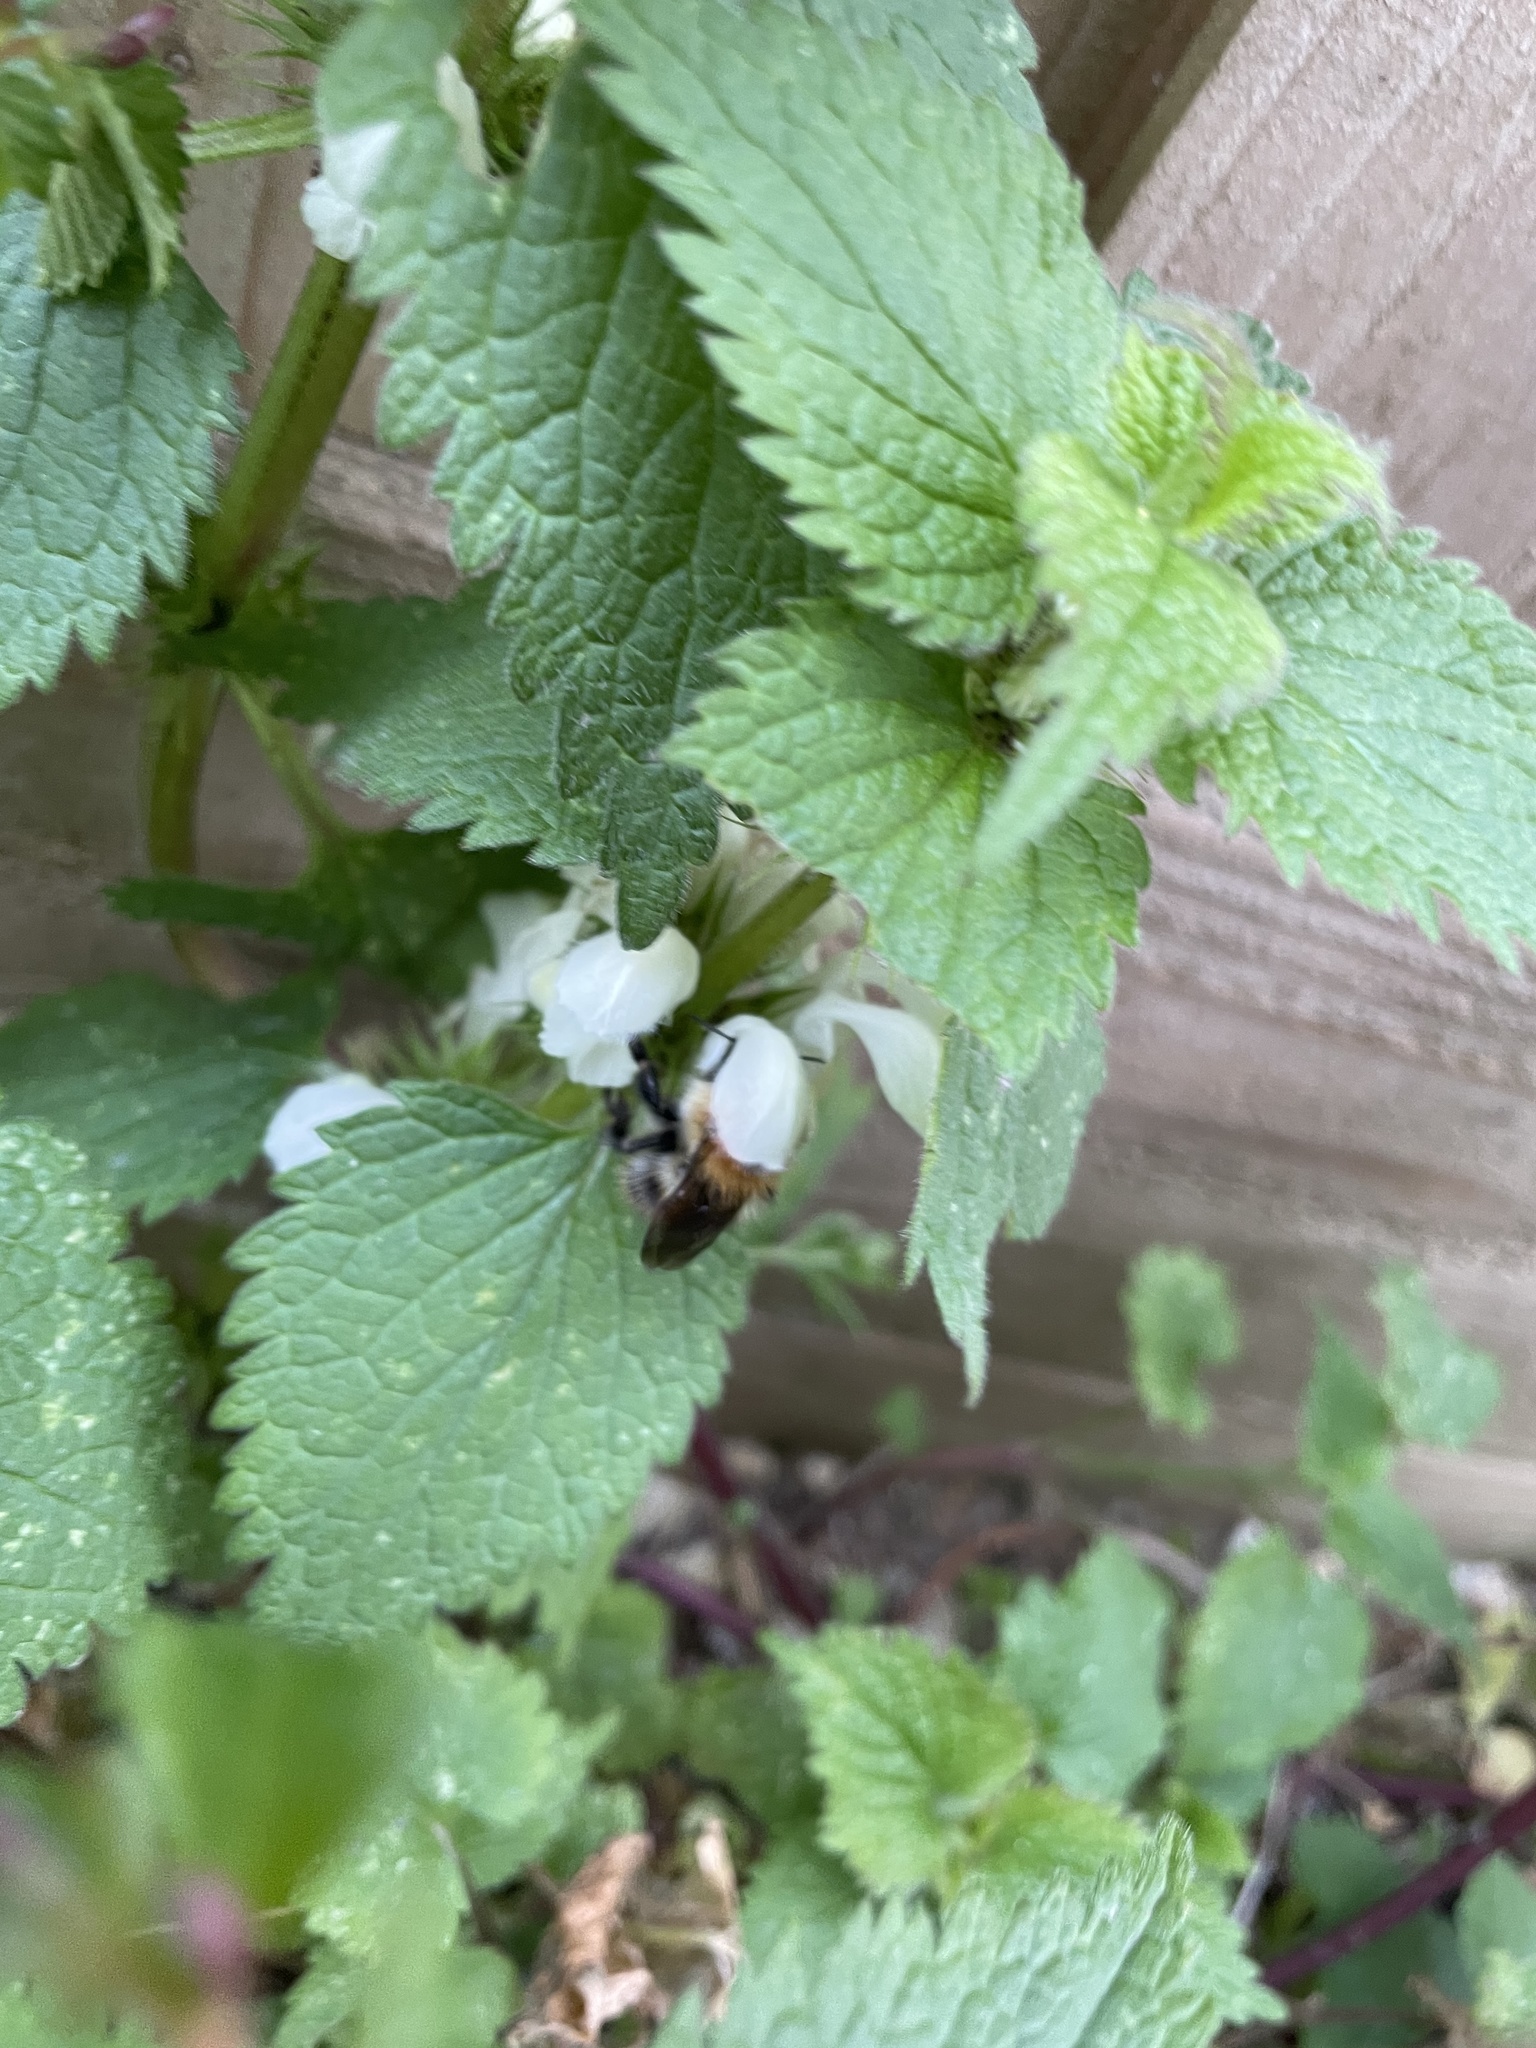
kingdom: Animalia
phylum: Arthropoda
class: Insecta
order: Hymenoptera
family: Apidae
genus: Bombus
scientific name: Bombus pascuorum
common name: Common carder bee
